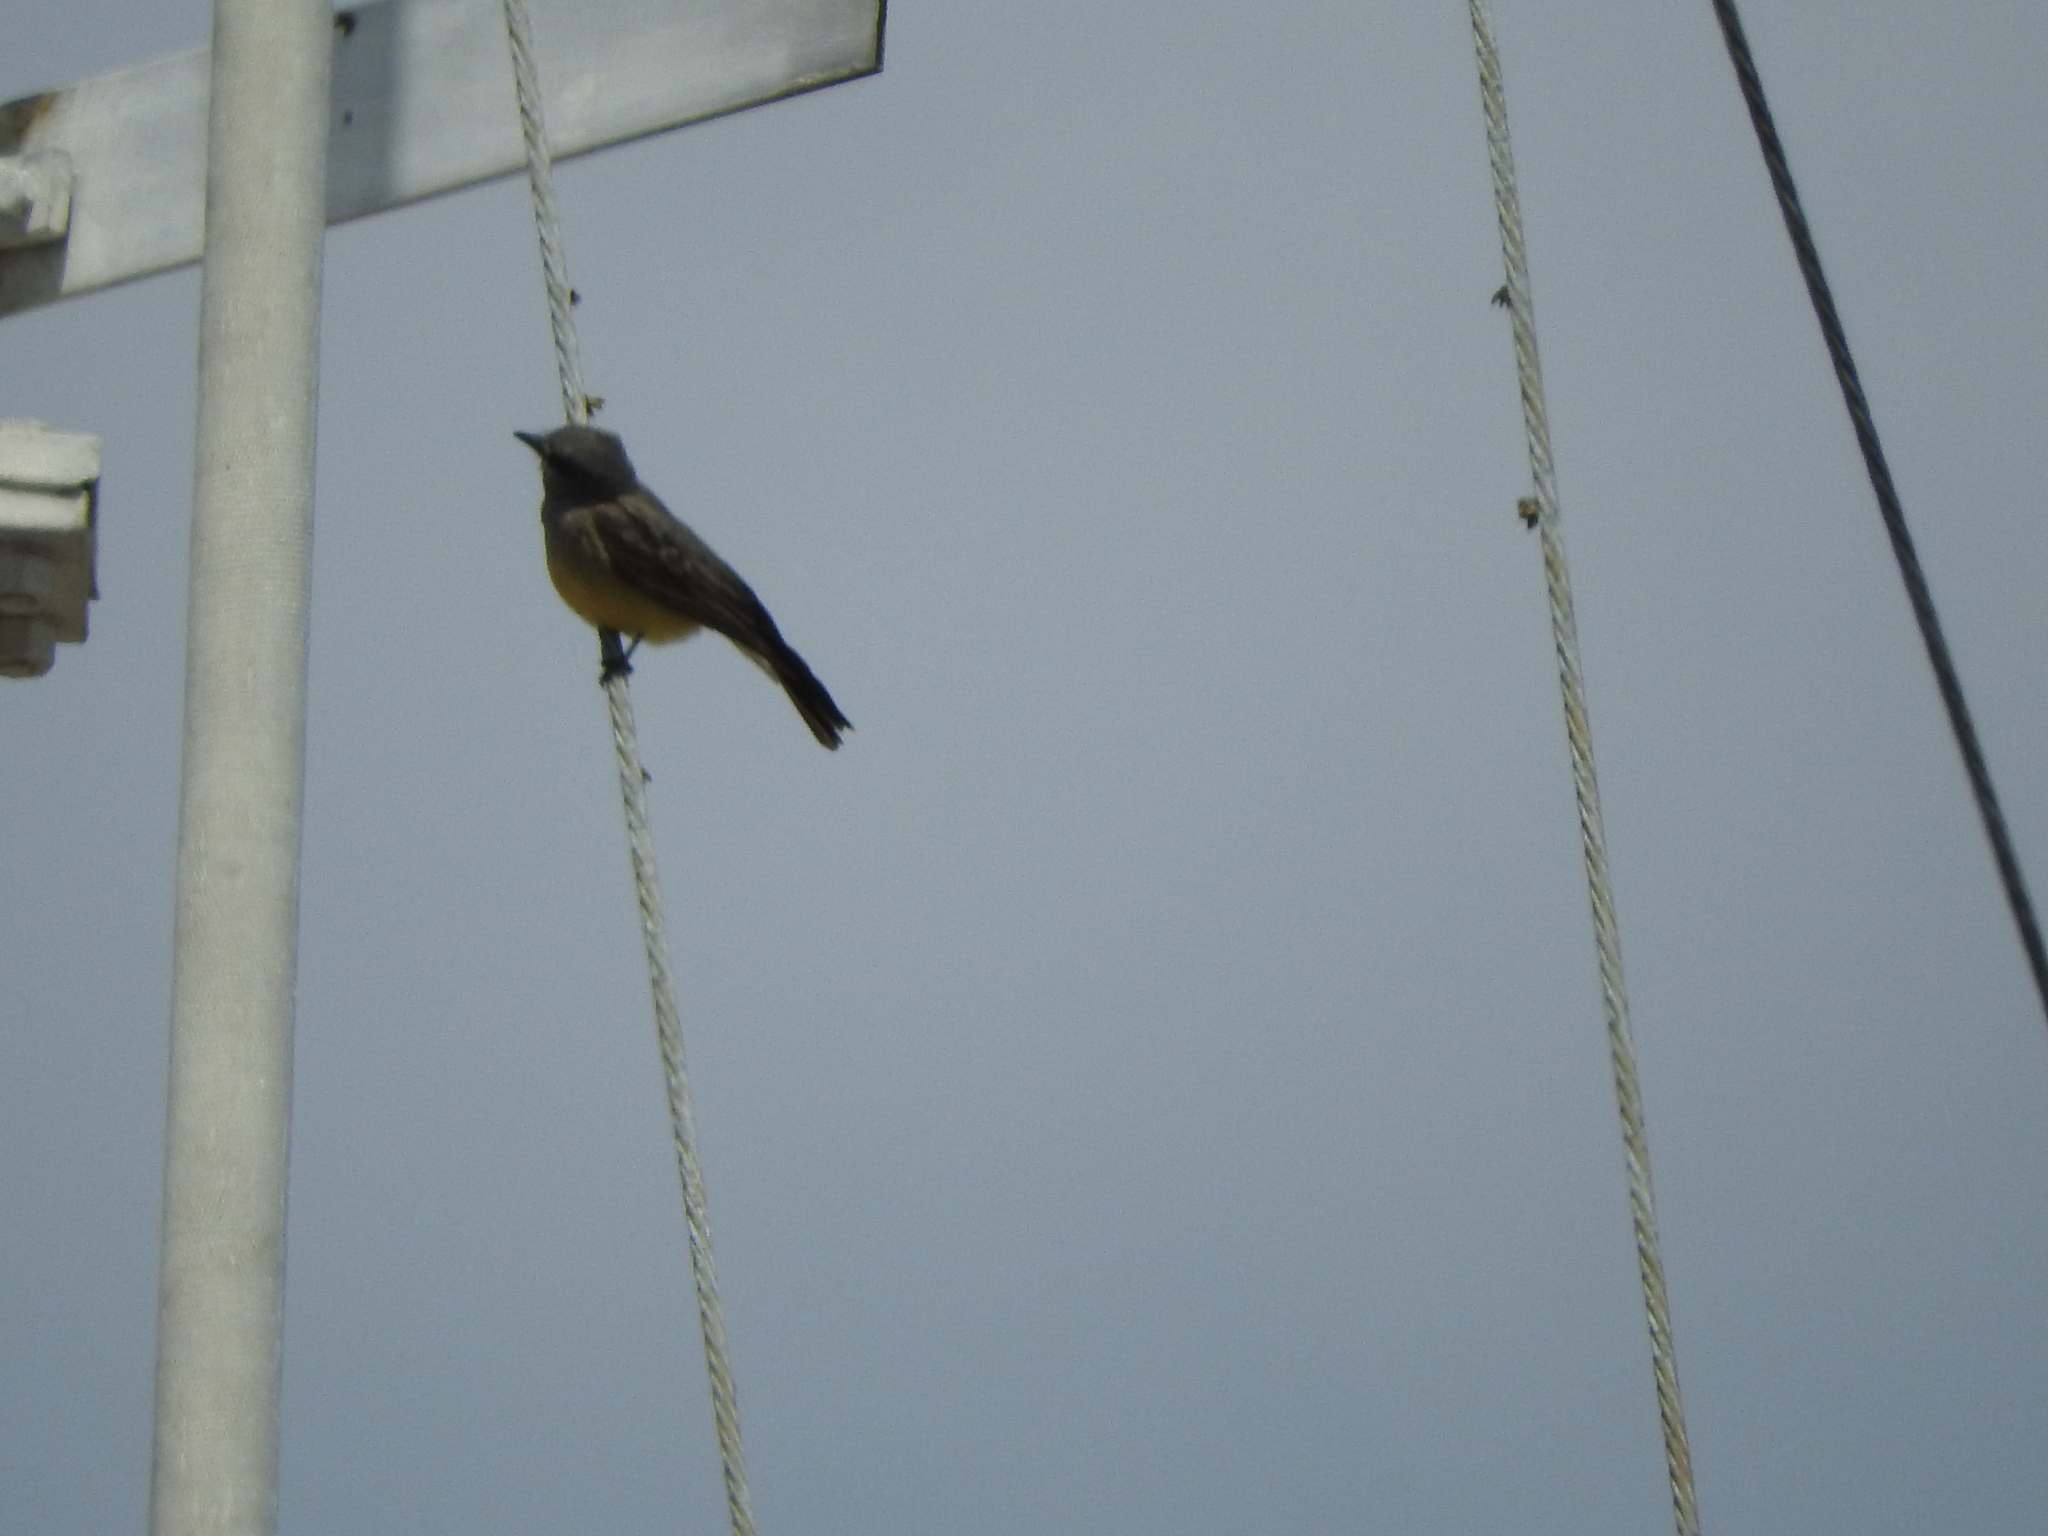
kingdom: Animalia
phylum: Chordata
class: Aves
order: Passeriformes
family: Tyrannidae
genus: Tyrannus
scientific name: Tyrannus vociferans
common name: Cassin's kingbird
